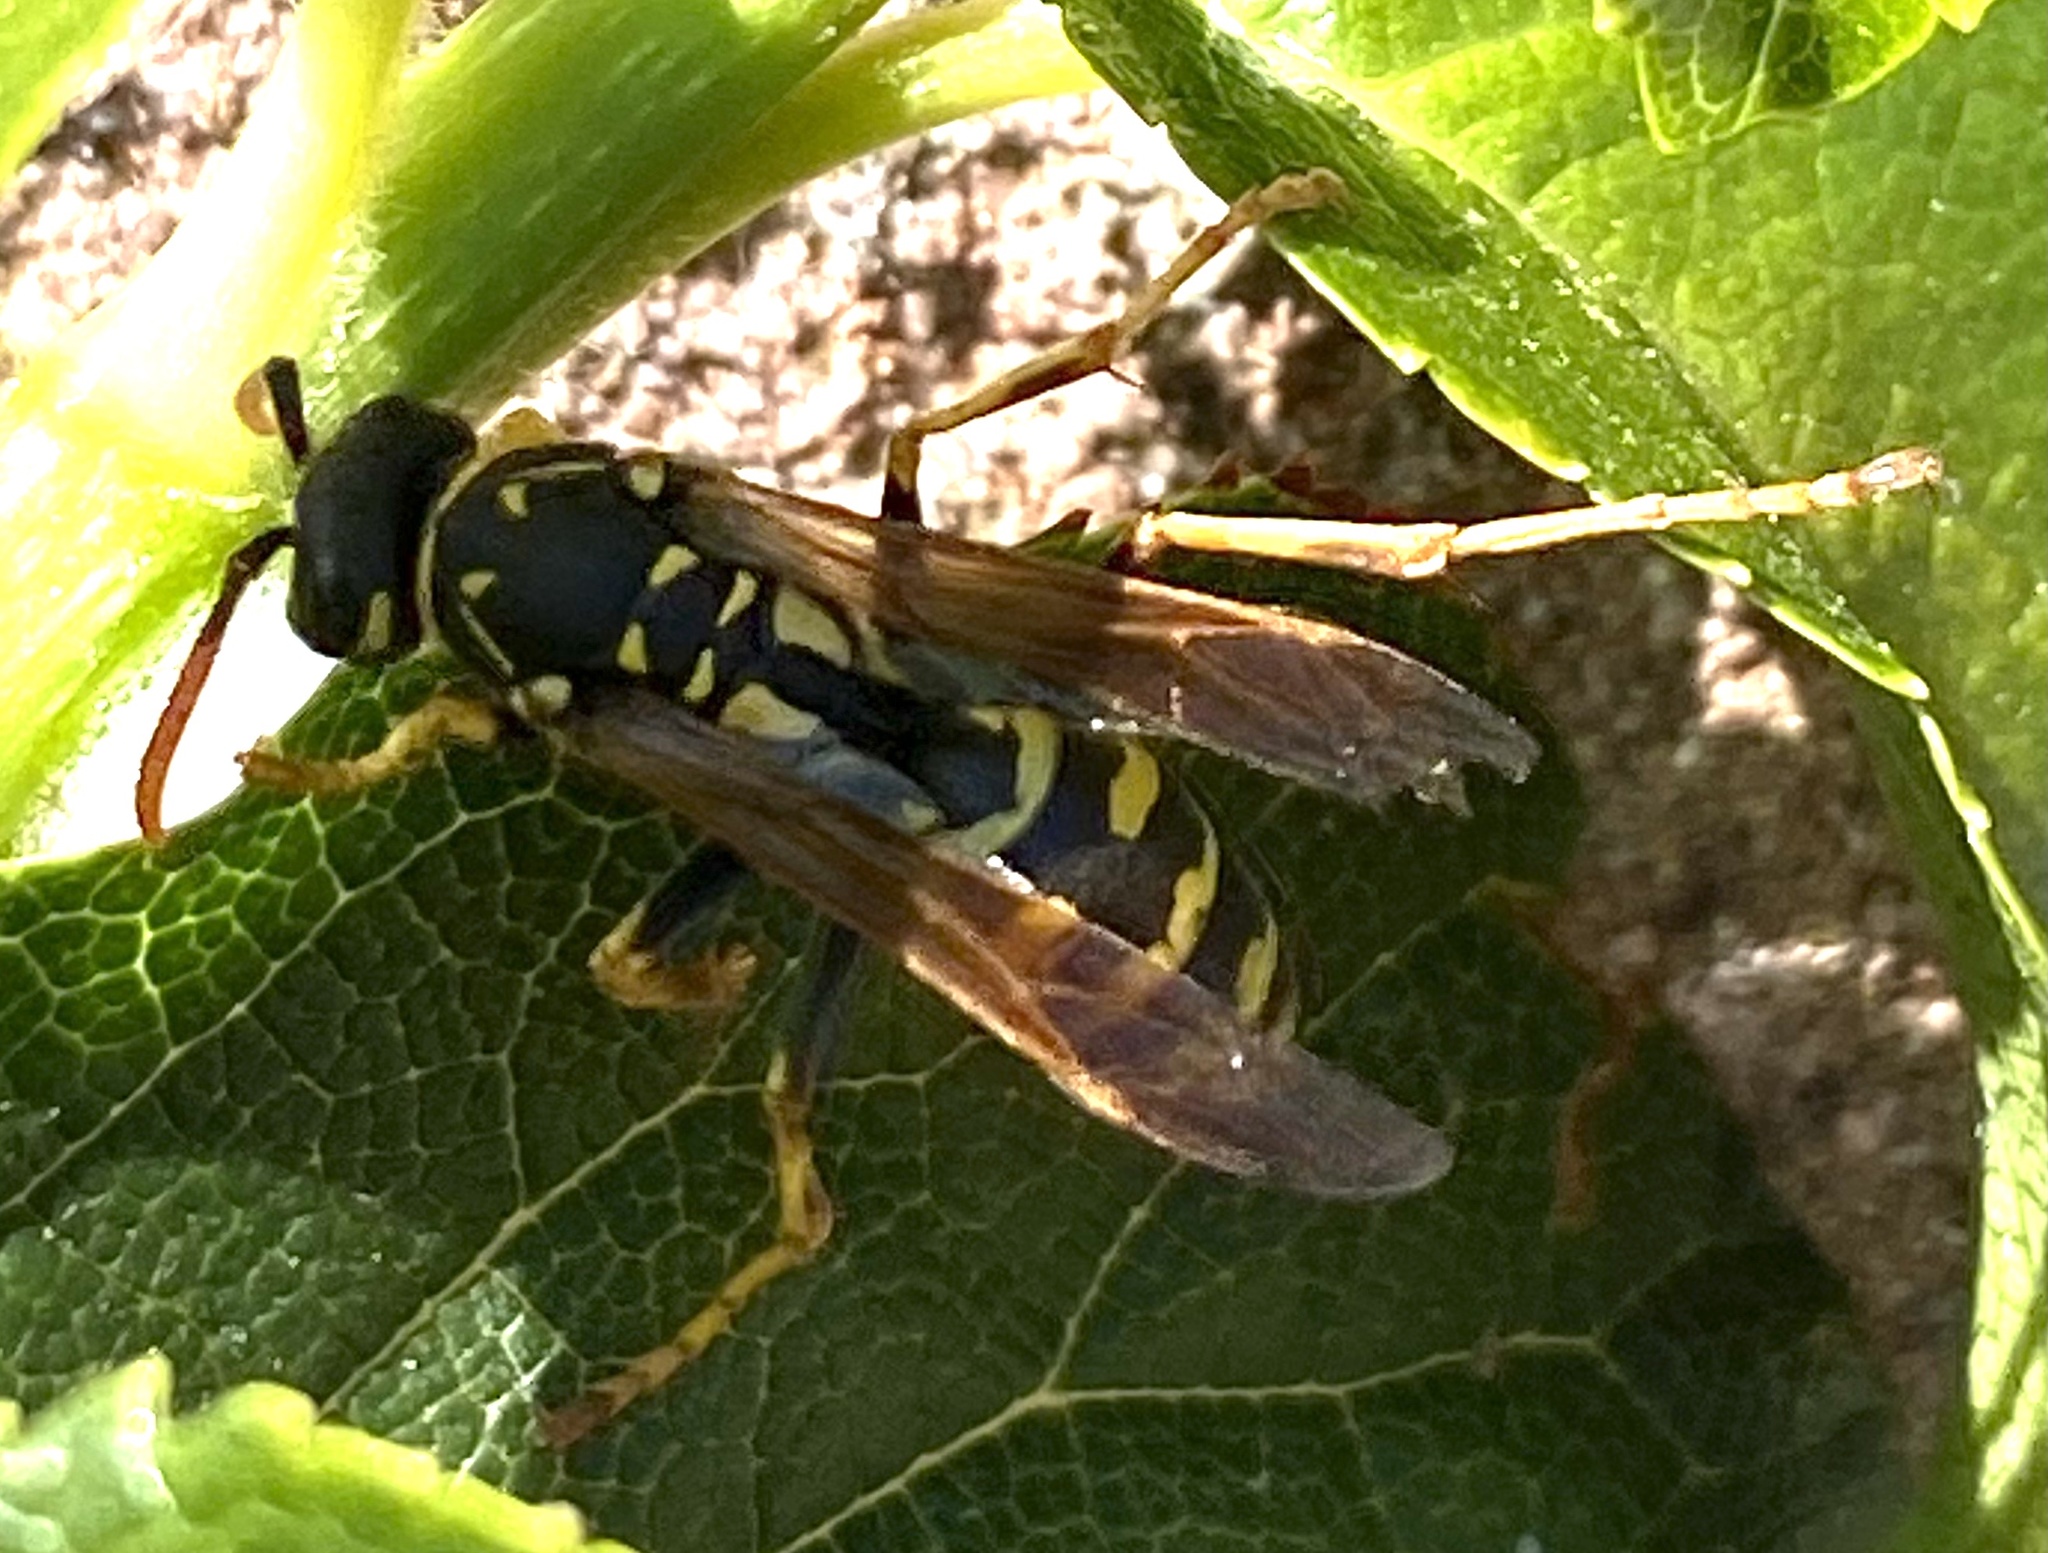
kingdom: Animalia
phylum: Arthropoda
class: Insecta
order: Hymenoptera
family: Eumenidae
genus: Polistes
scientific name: Polistes dominula
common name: Paper wasp
